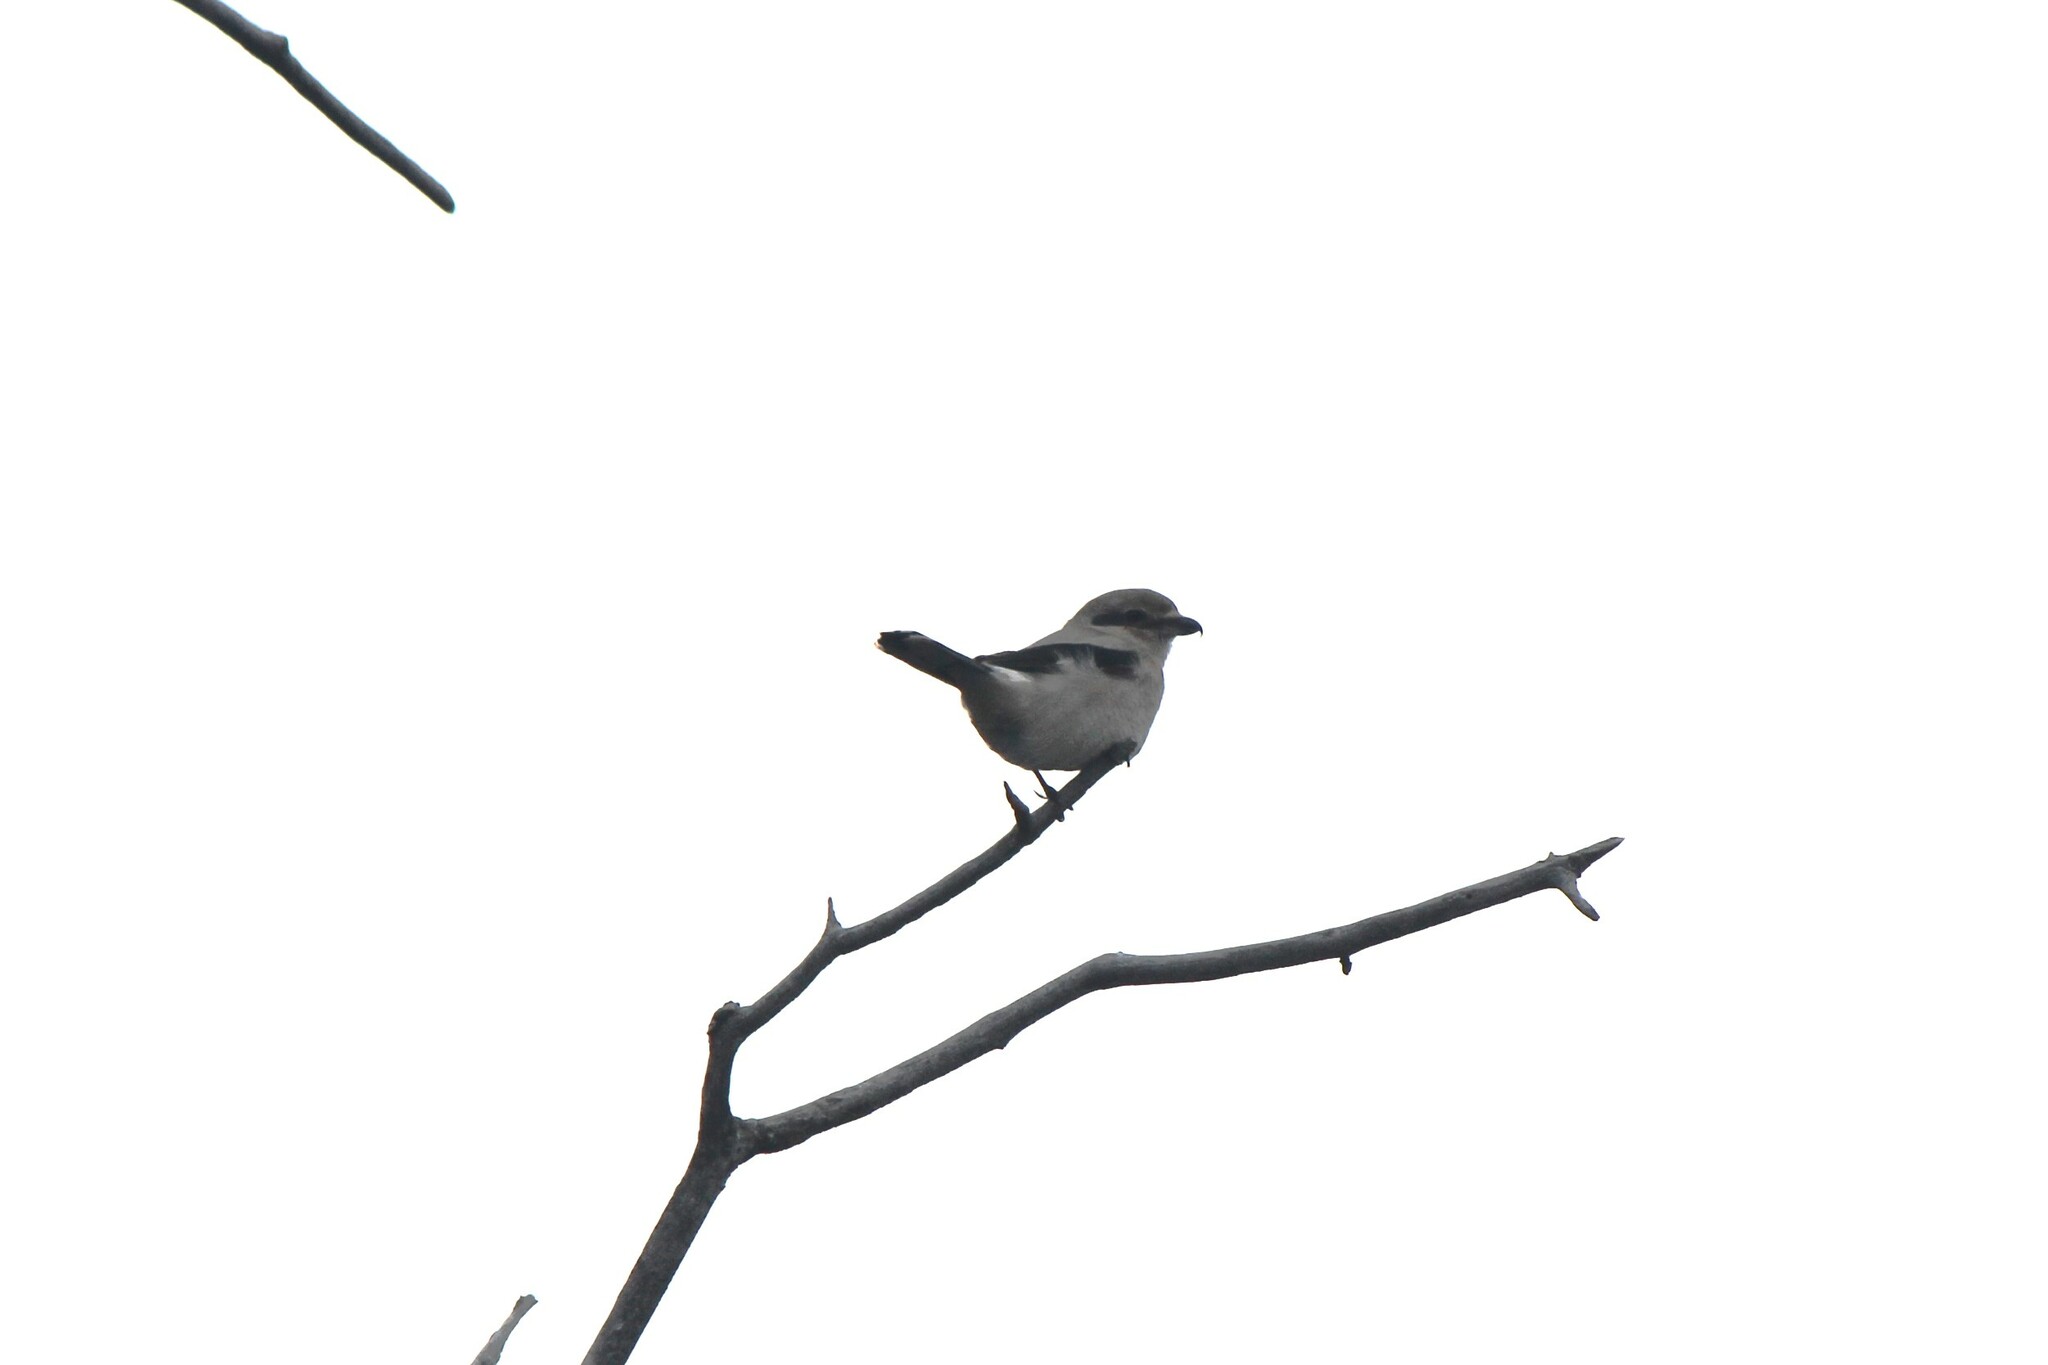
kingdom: Animalia
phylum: Chordata
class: Aves
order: Passeriformes
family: Laniidae
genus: Lanius
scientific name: Lanius borealis
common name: Northern shrike
